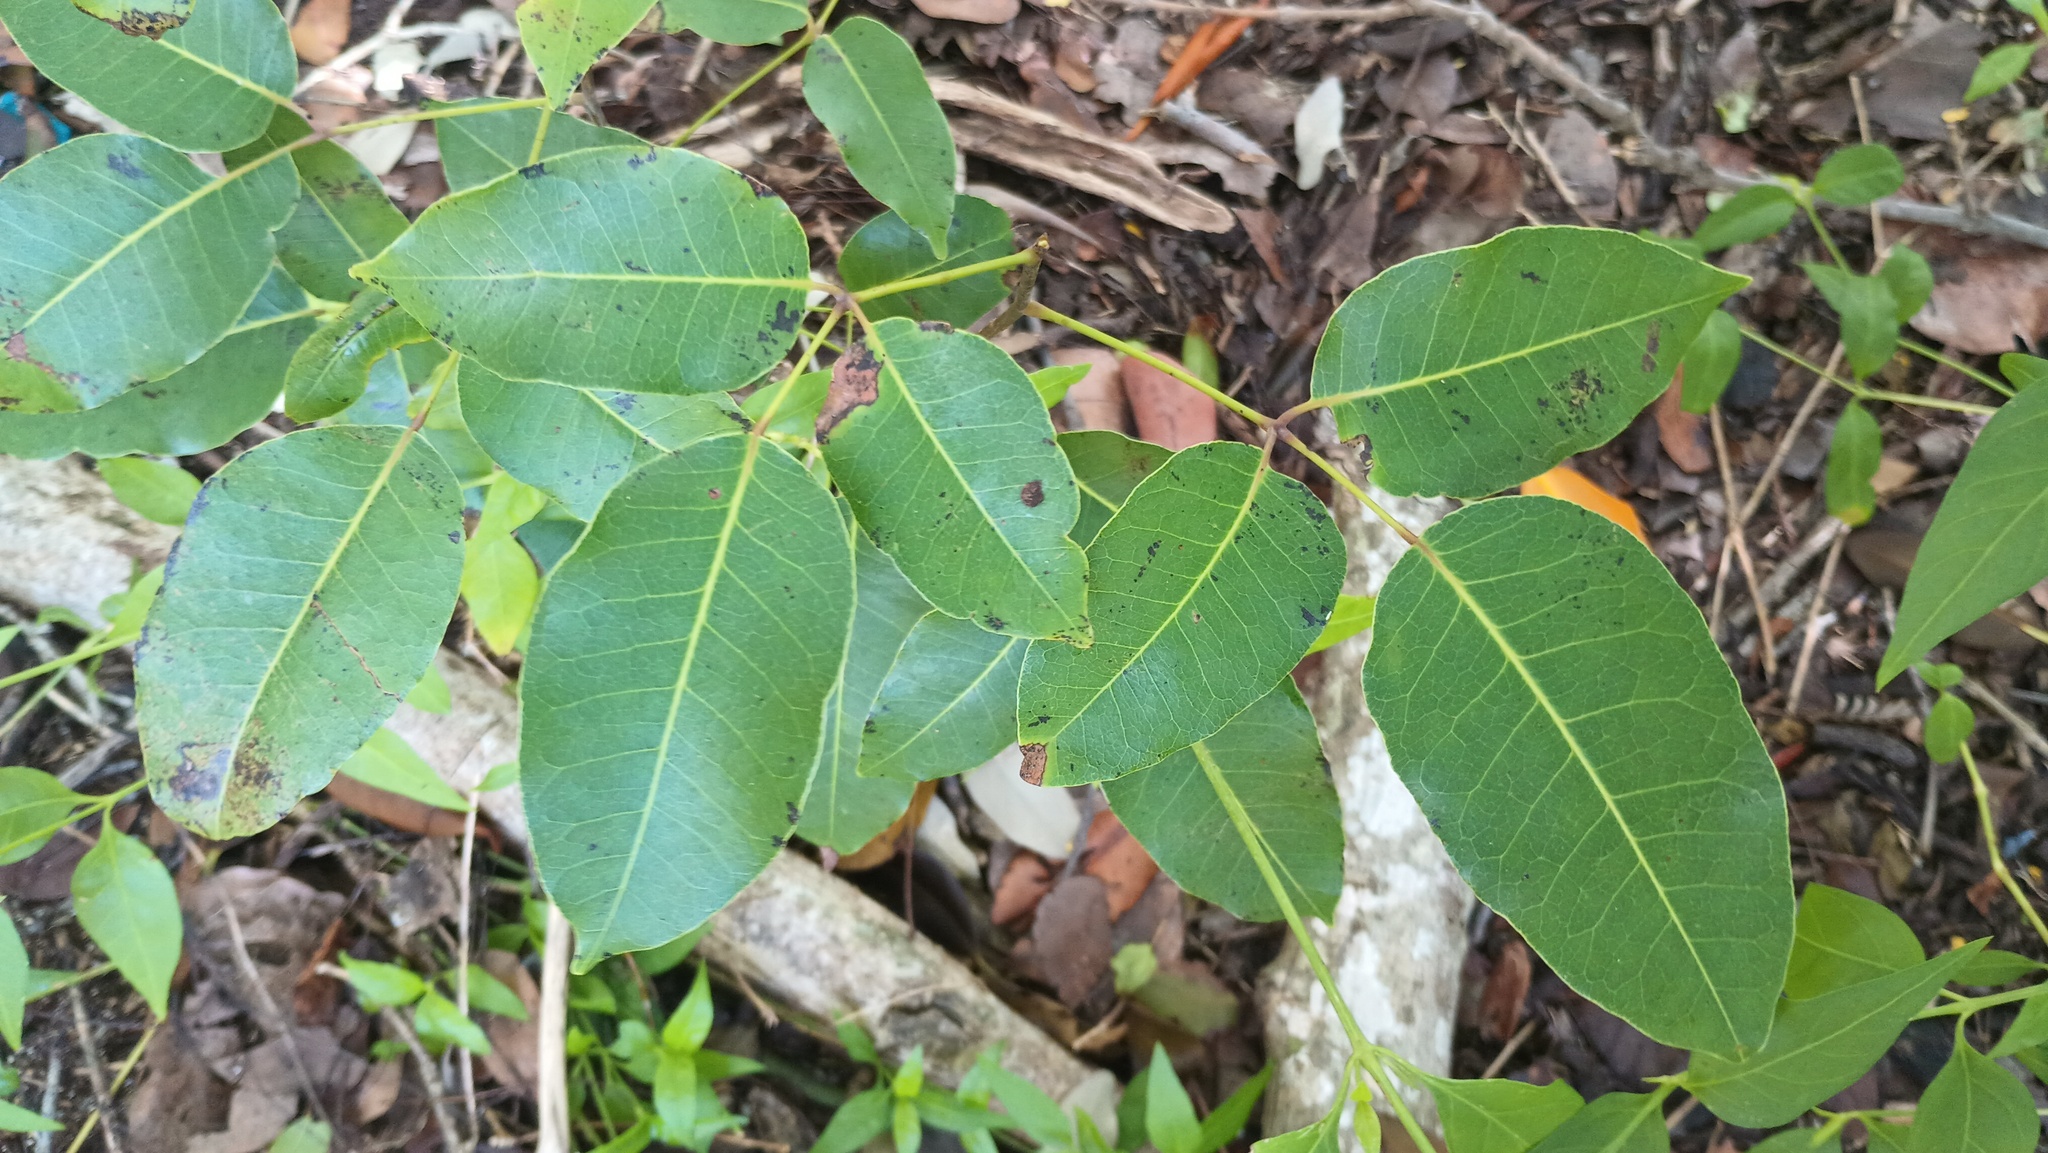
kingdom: Plantae
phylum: Tracheophyta
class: Magnoliopsida
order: Sapindales
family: Anacardiaceae
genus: Metopium
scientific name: Metopium toxiferum
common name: Florida poisontree
